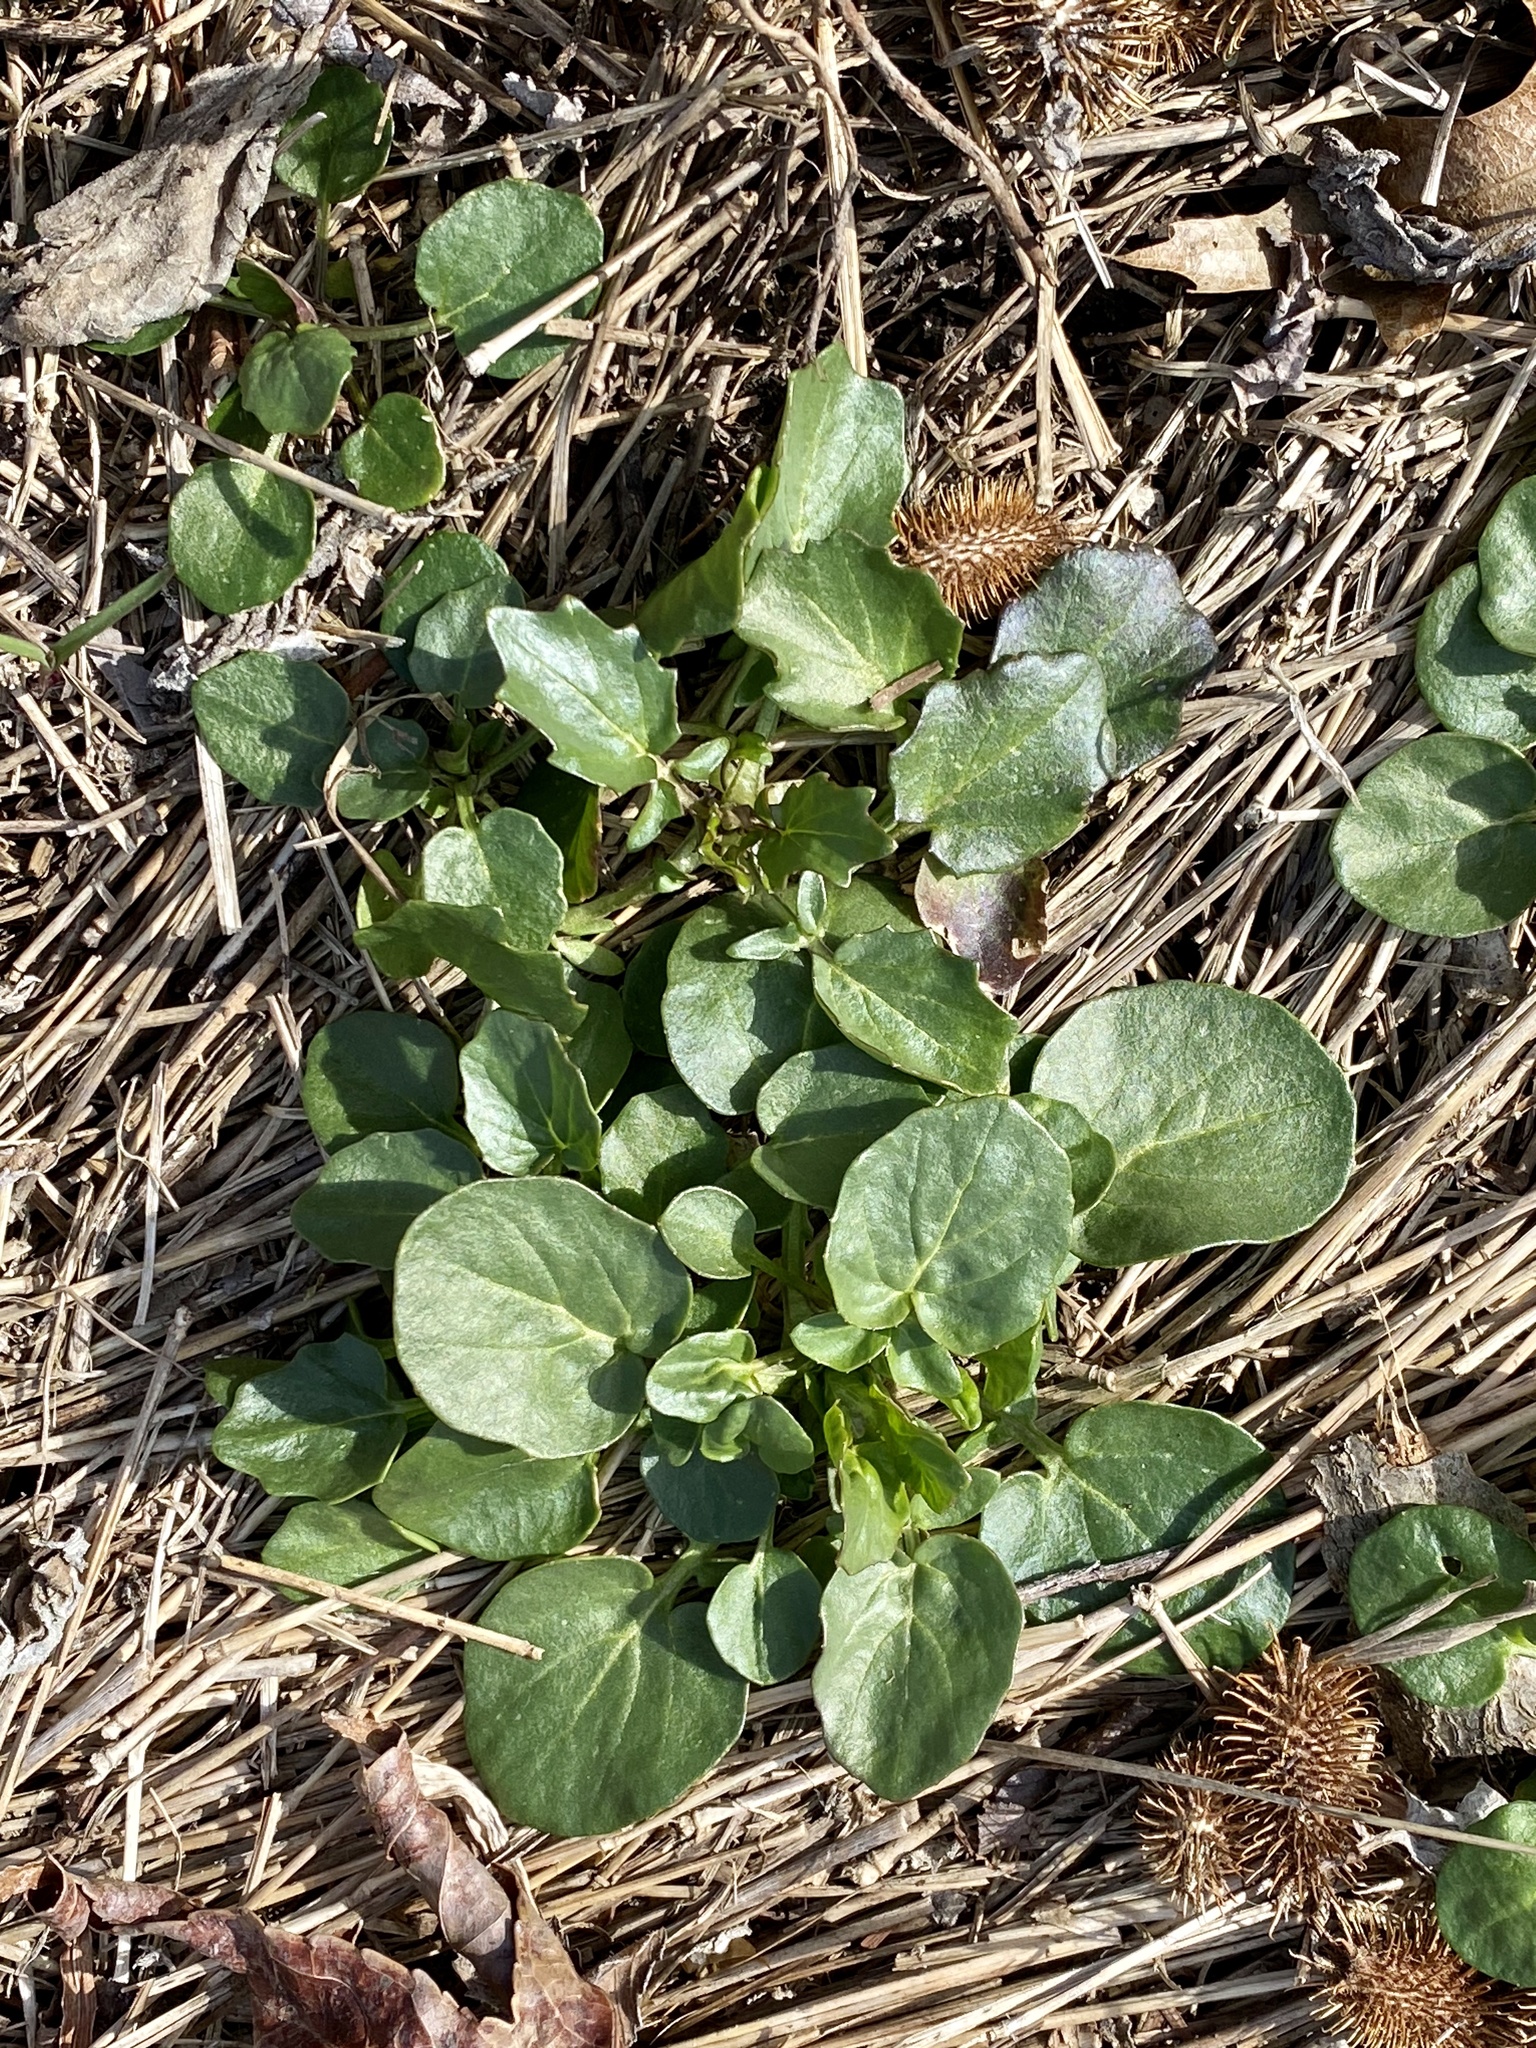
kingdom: Plantae
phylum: Tracheophyta
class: Magnoliopsida
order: Brassicales
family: Brassicaceae
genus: Barbarea
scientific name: Barbarea vulgaris
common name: Cressy-greens
